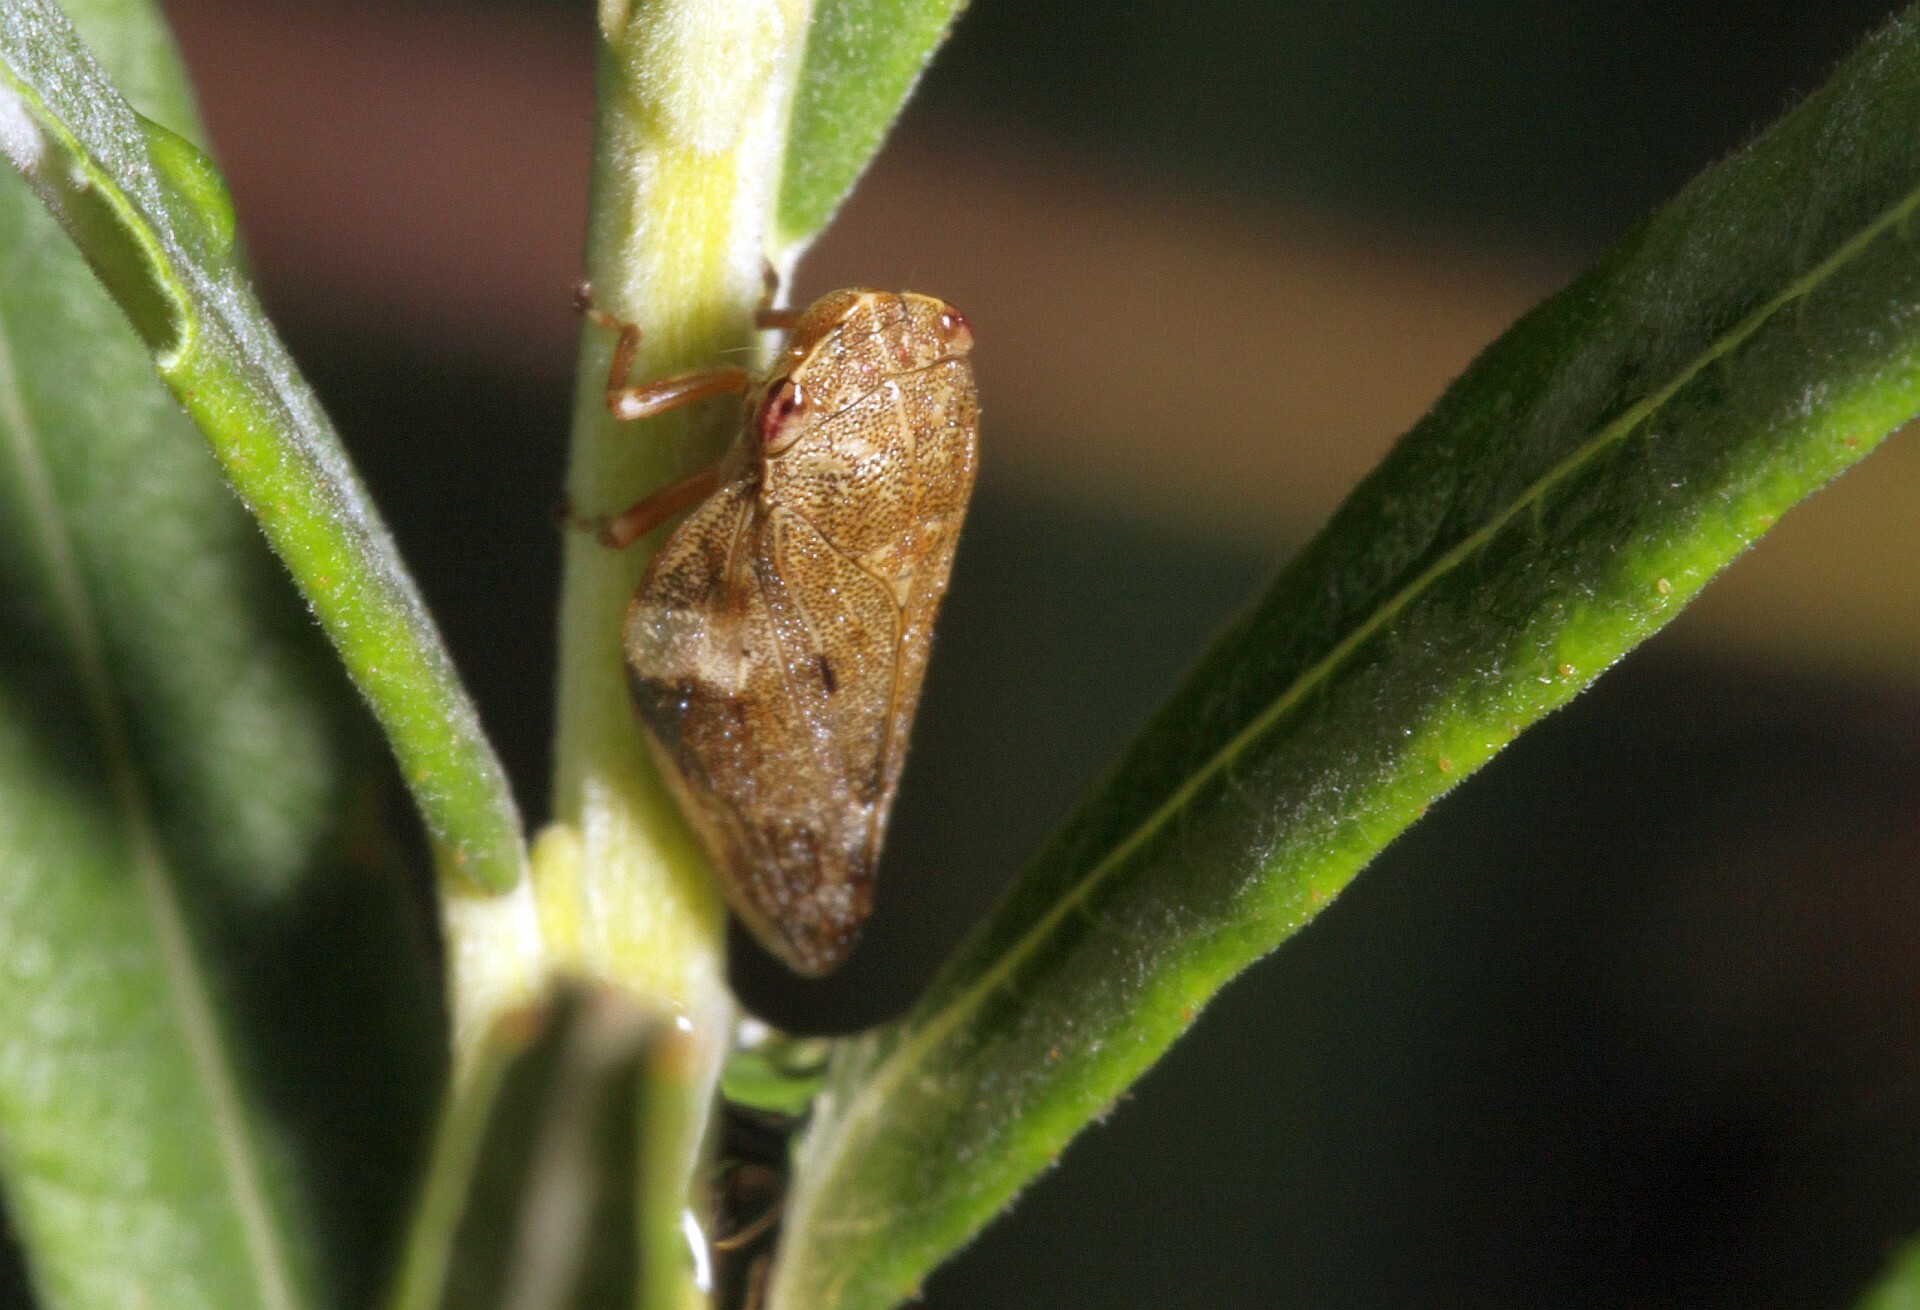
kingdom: Animalia
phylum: Arthropoda
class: Insecta
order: Hemiptera
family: Aphrophoridae
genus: Aphrophora
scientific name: Aphrophora alni
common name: European alder spittlebug
